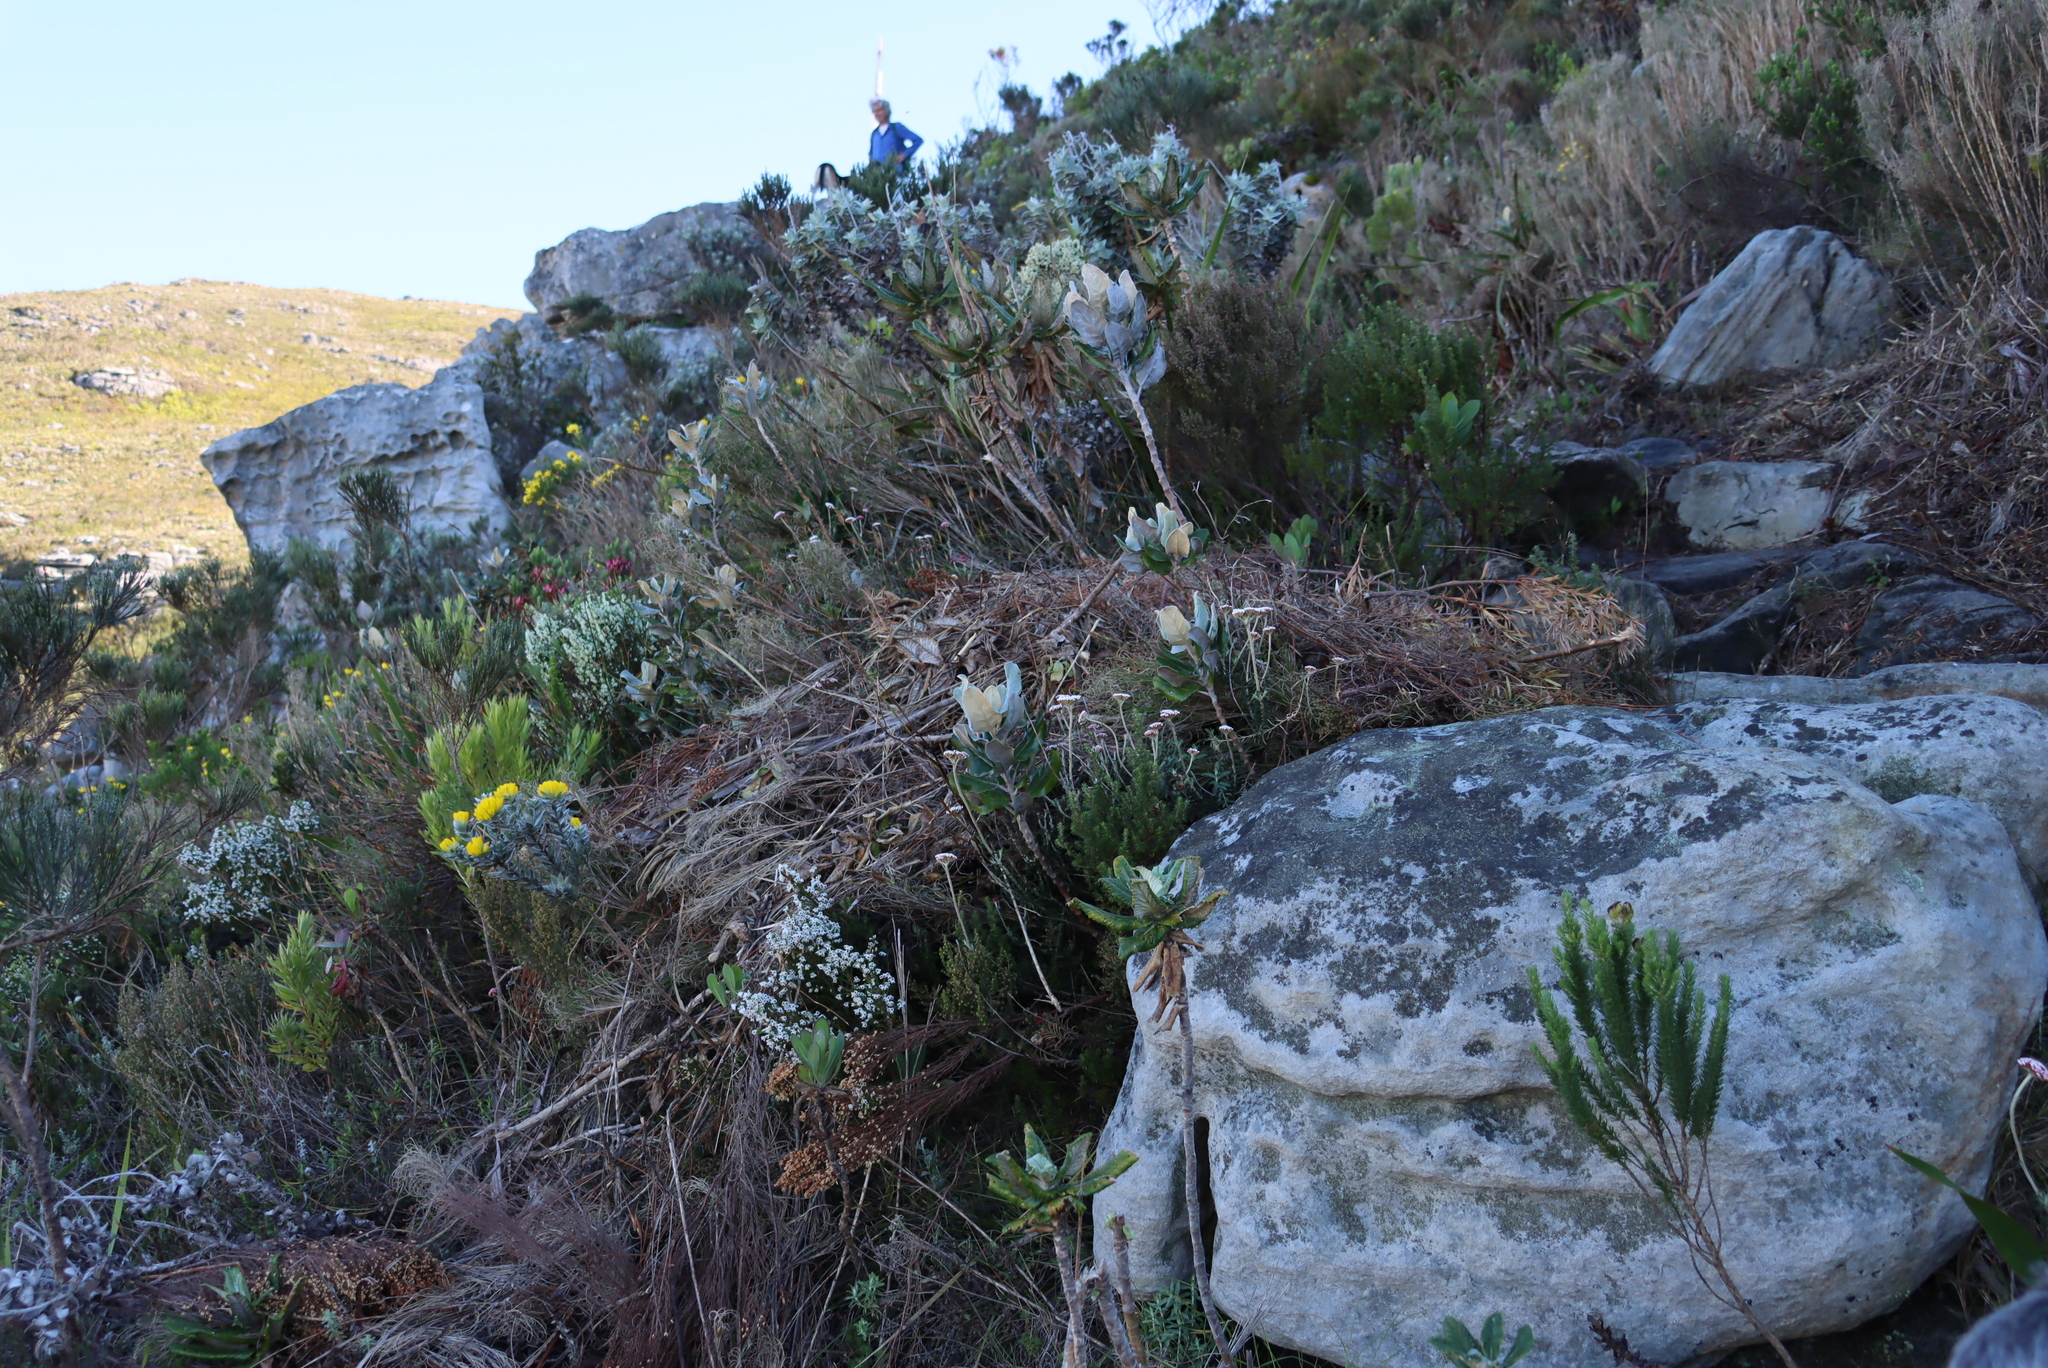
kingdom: Plantae
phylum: Tracheophyta
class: Magnoliopsida
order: Asterales
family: Asteraceae
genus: Capelio
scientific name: Capelio tabularis
